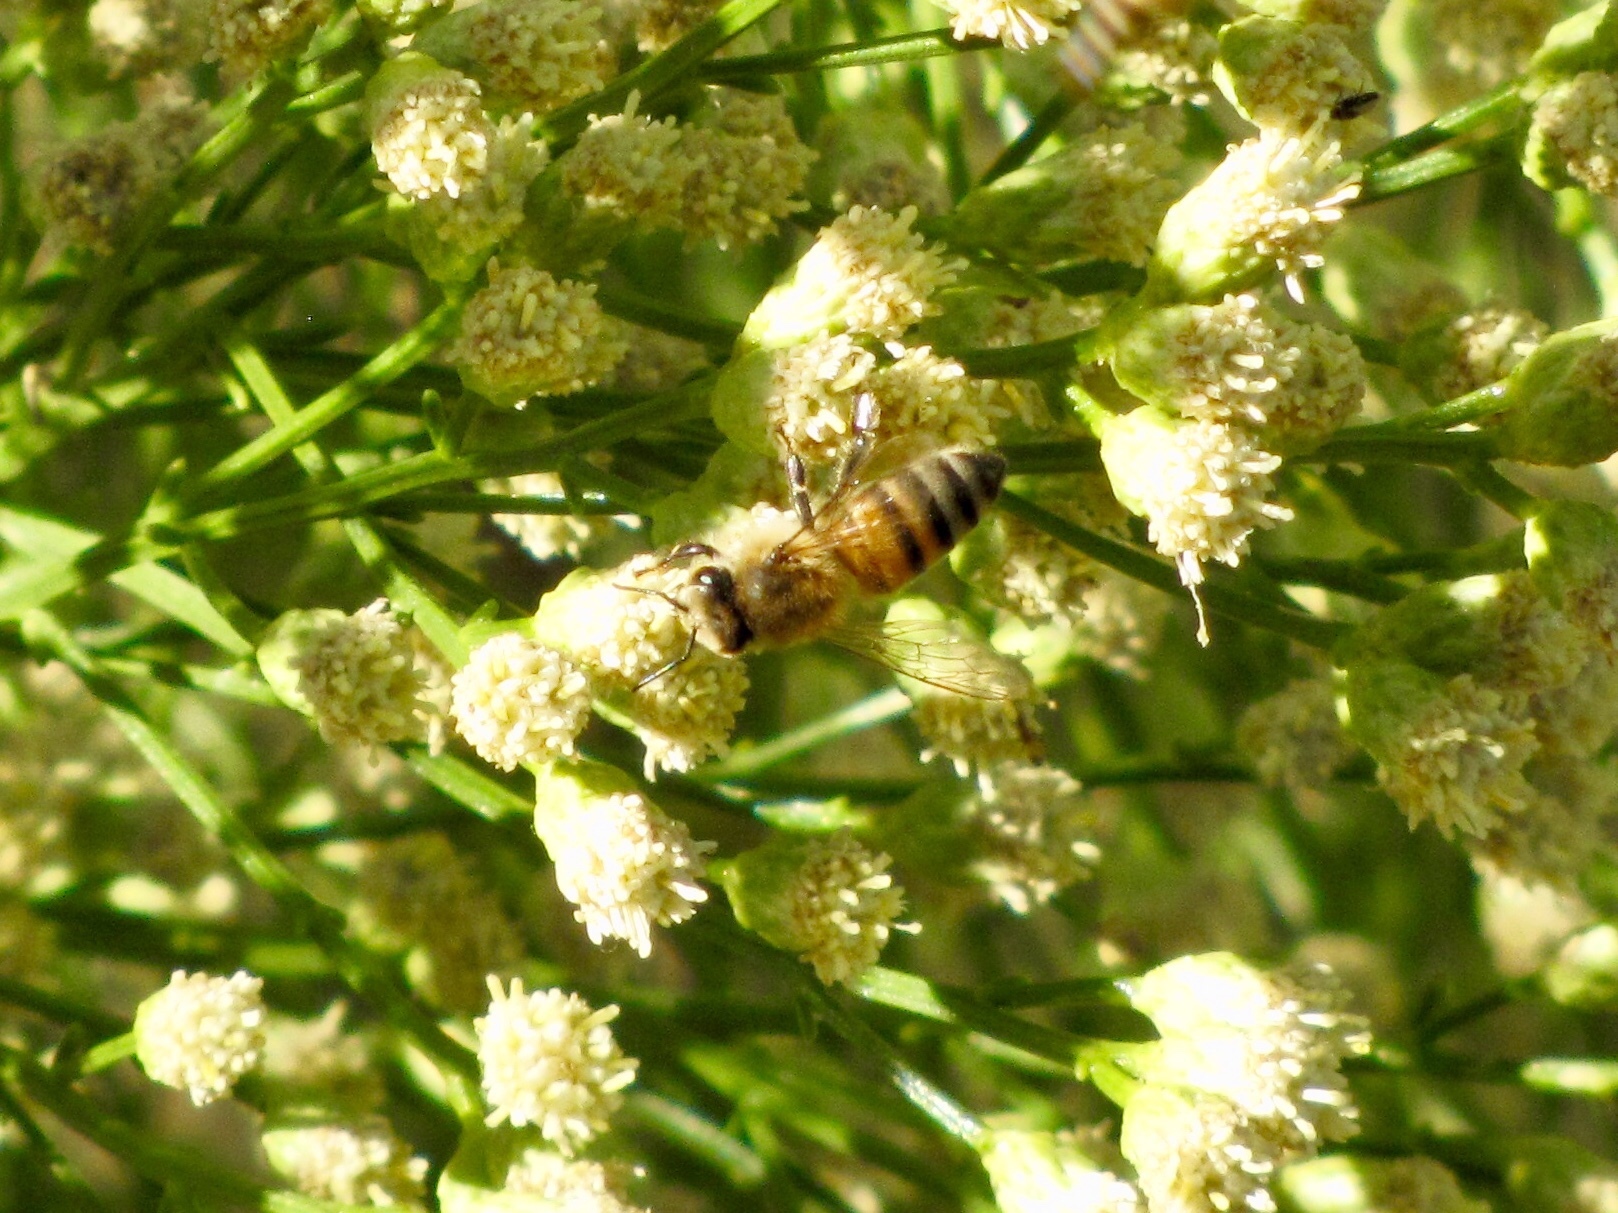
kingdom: Animalia
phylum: Arthropoda
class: Insecta
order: Hymenoptera
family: Apidae
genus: Apis
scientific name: Apis mellifera
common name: Honey bee
